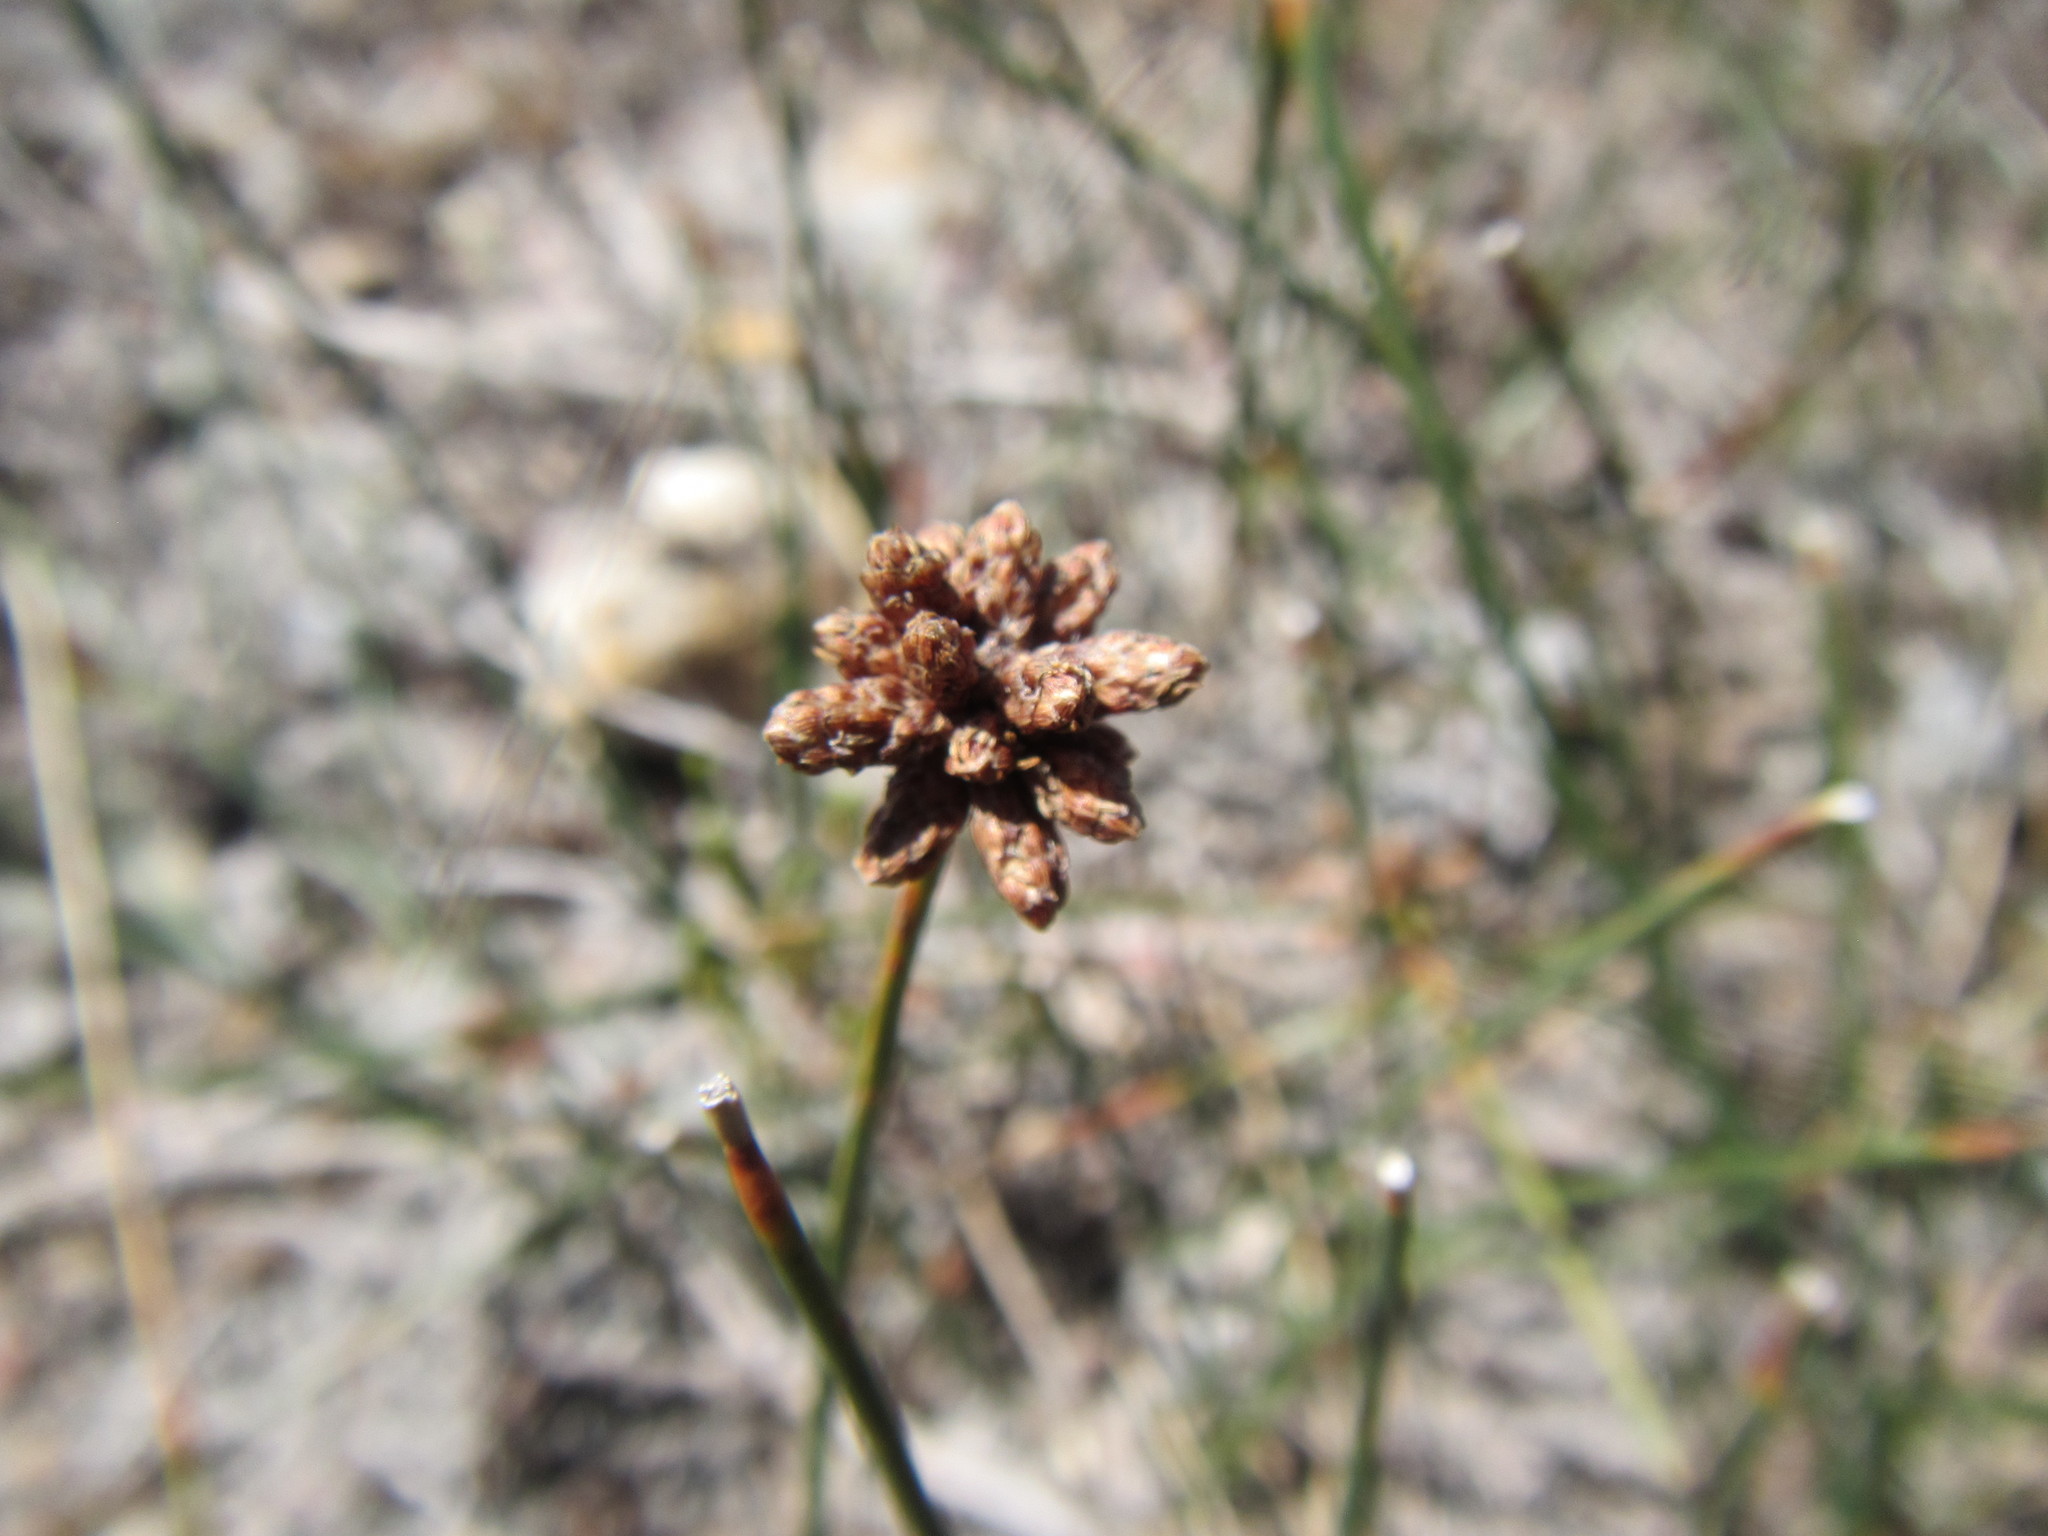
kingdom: Plantae
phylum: Tracheophyta
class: Liliopsida
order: Poales
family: Cyperaceae
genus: Ficinia
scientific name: Ficinia repens
